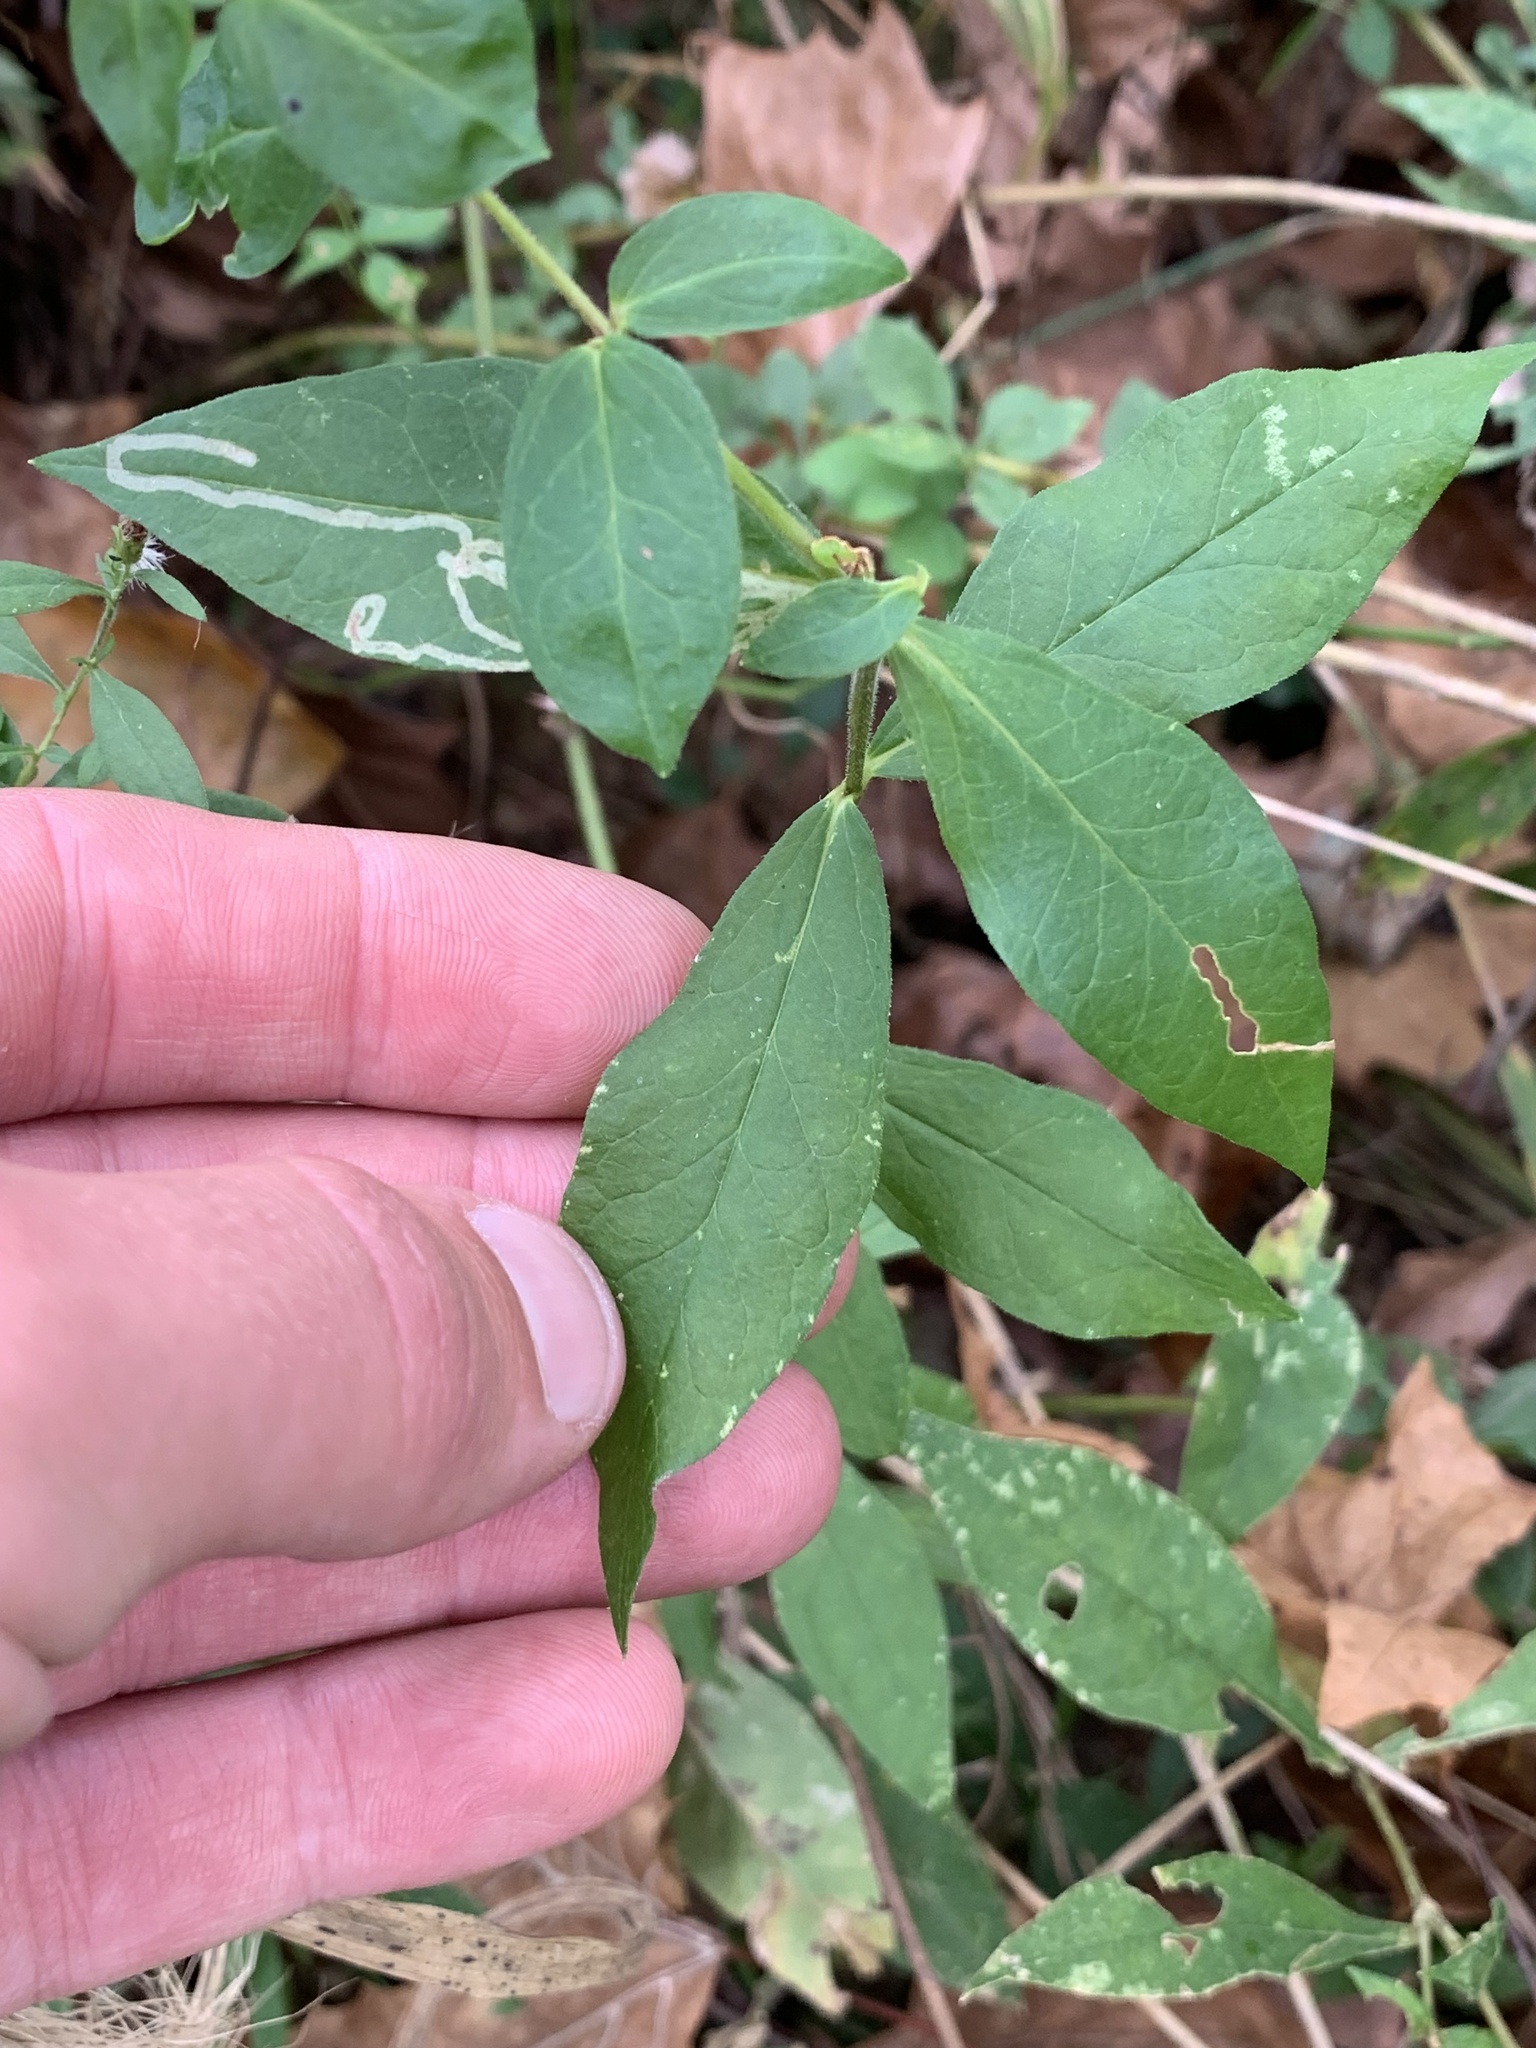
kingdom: Plantae
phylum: Tracheophyta
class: Magnoliopsida
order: Ericales
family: Polemoniaceae
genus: Phlox
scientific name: Phlox paniculata
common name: Fall phlox
